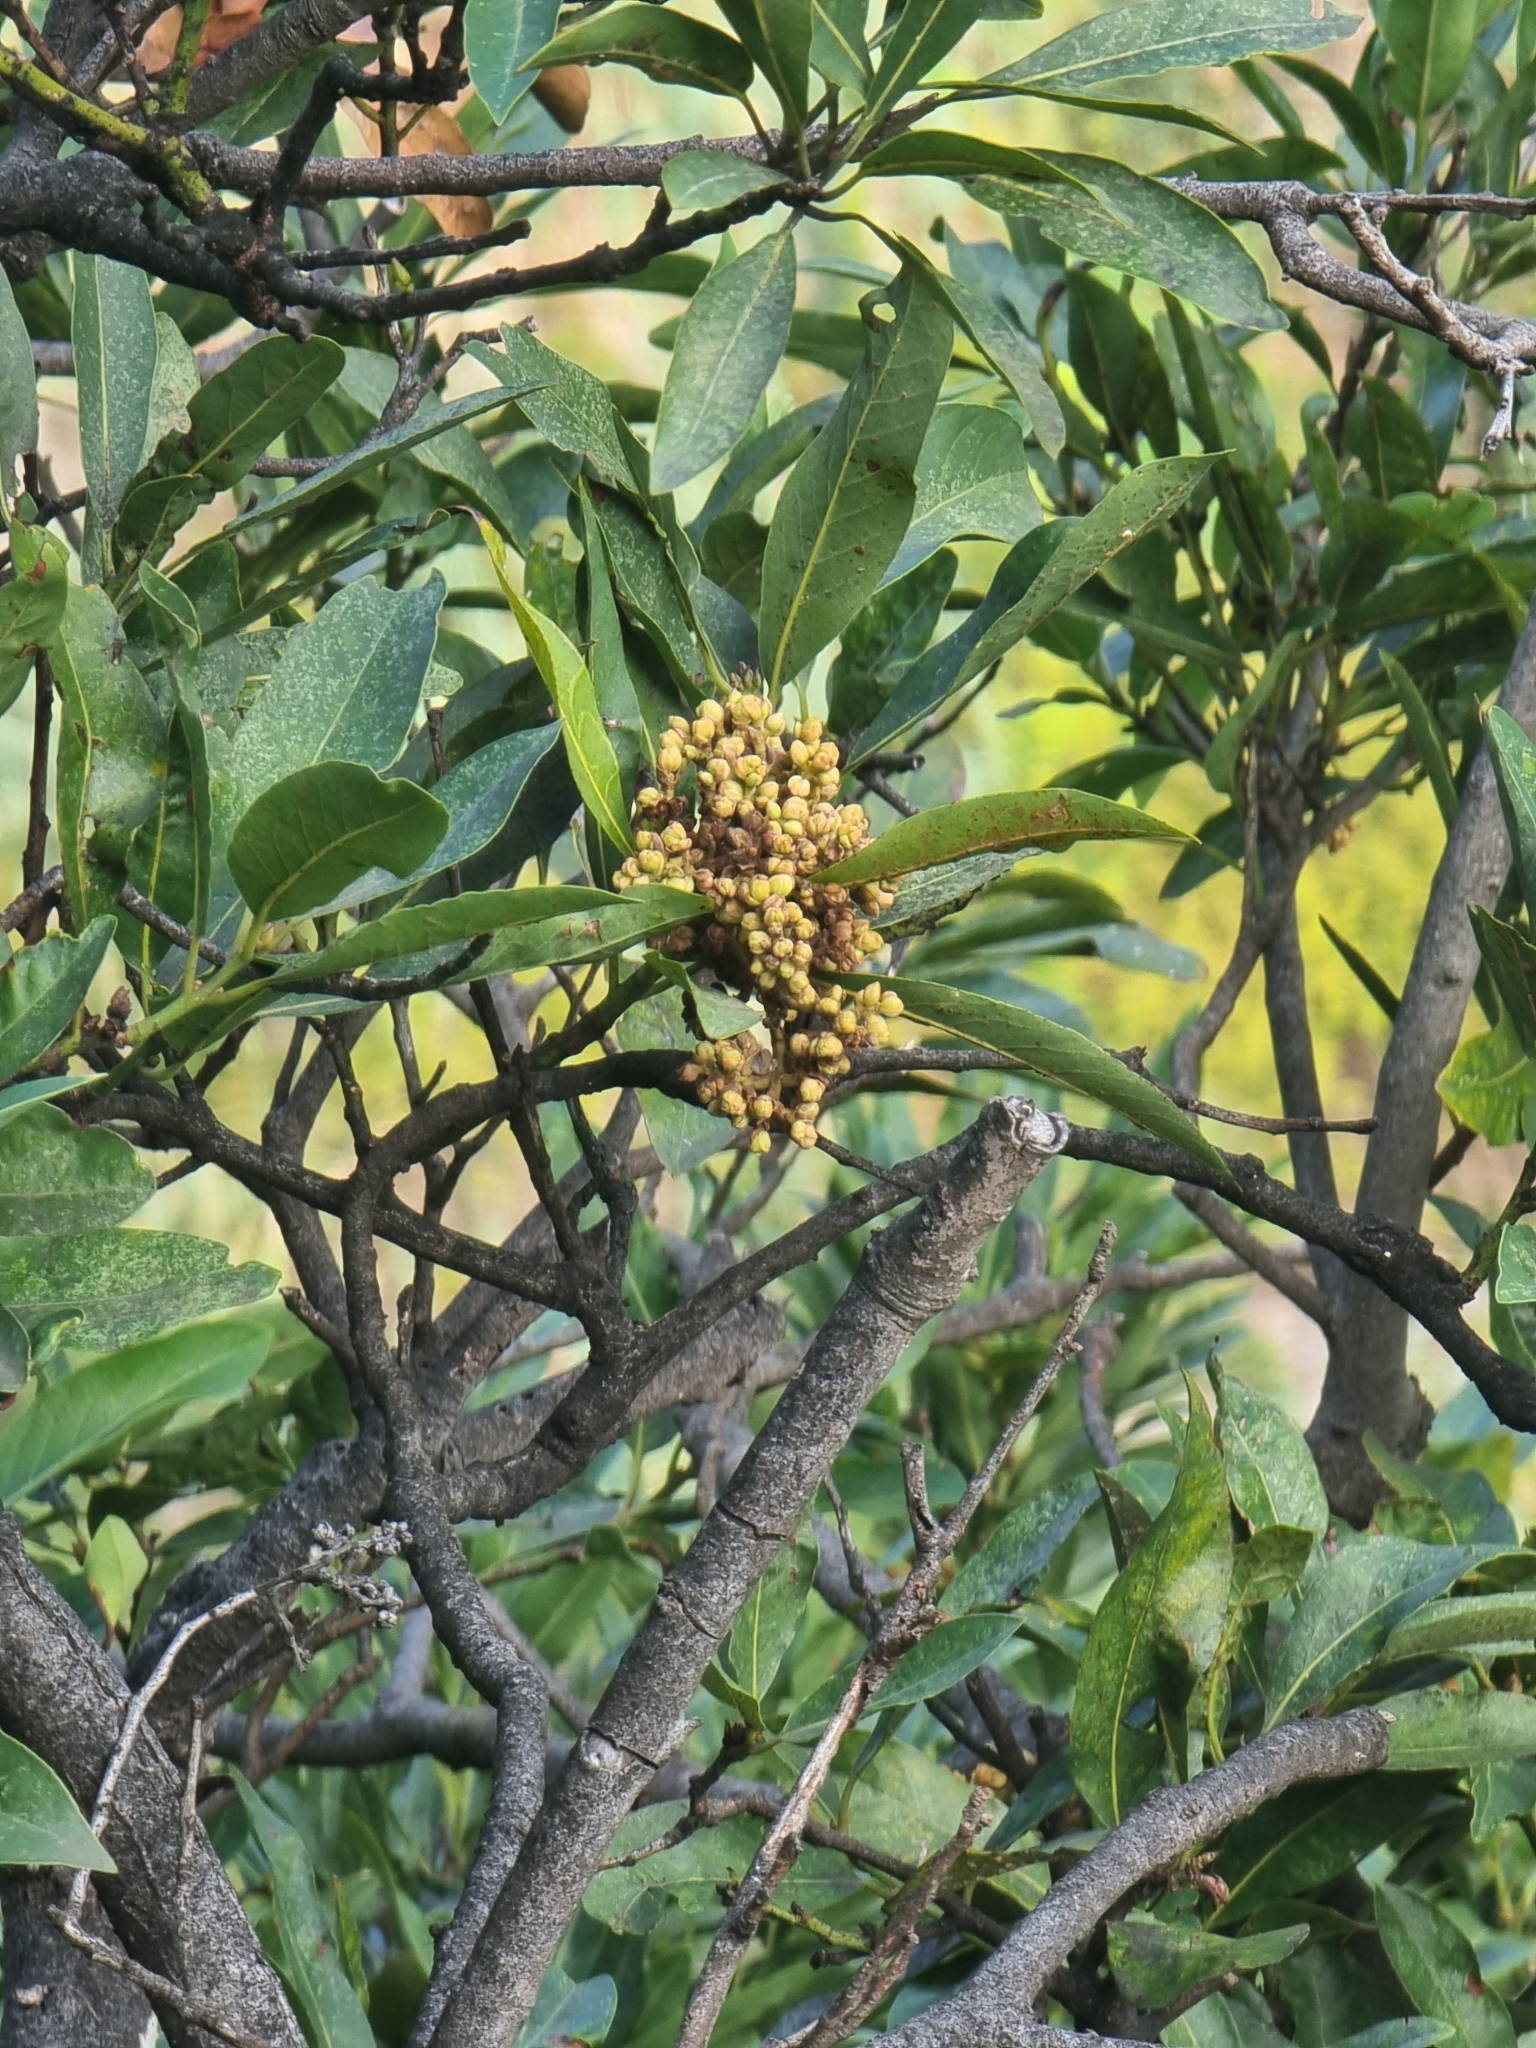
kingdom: Plantae
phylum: Tracheophyta
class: Magnoliopsida
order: Laurales
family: Lauraceae
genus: Laurus
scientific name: Laurus novocanariensis
